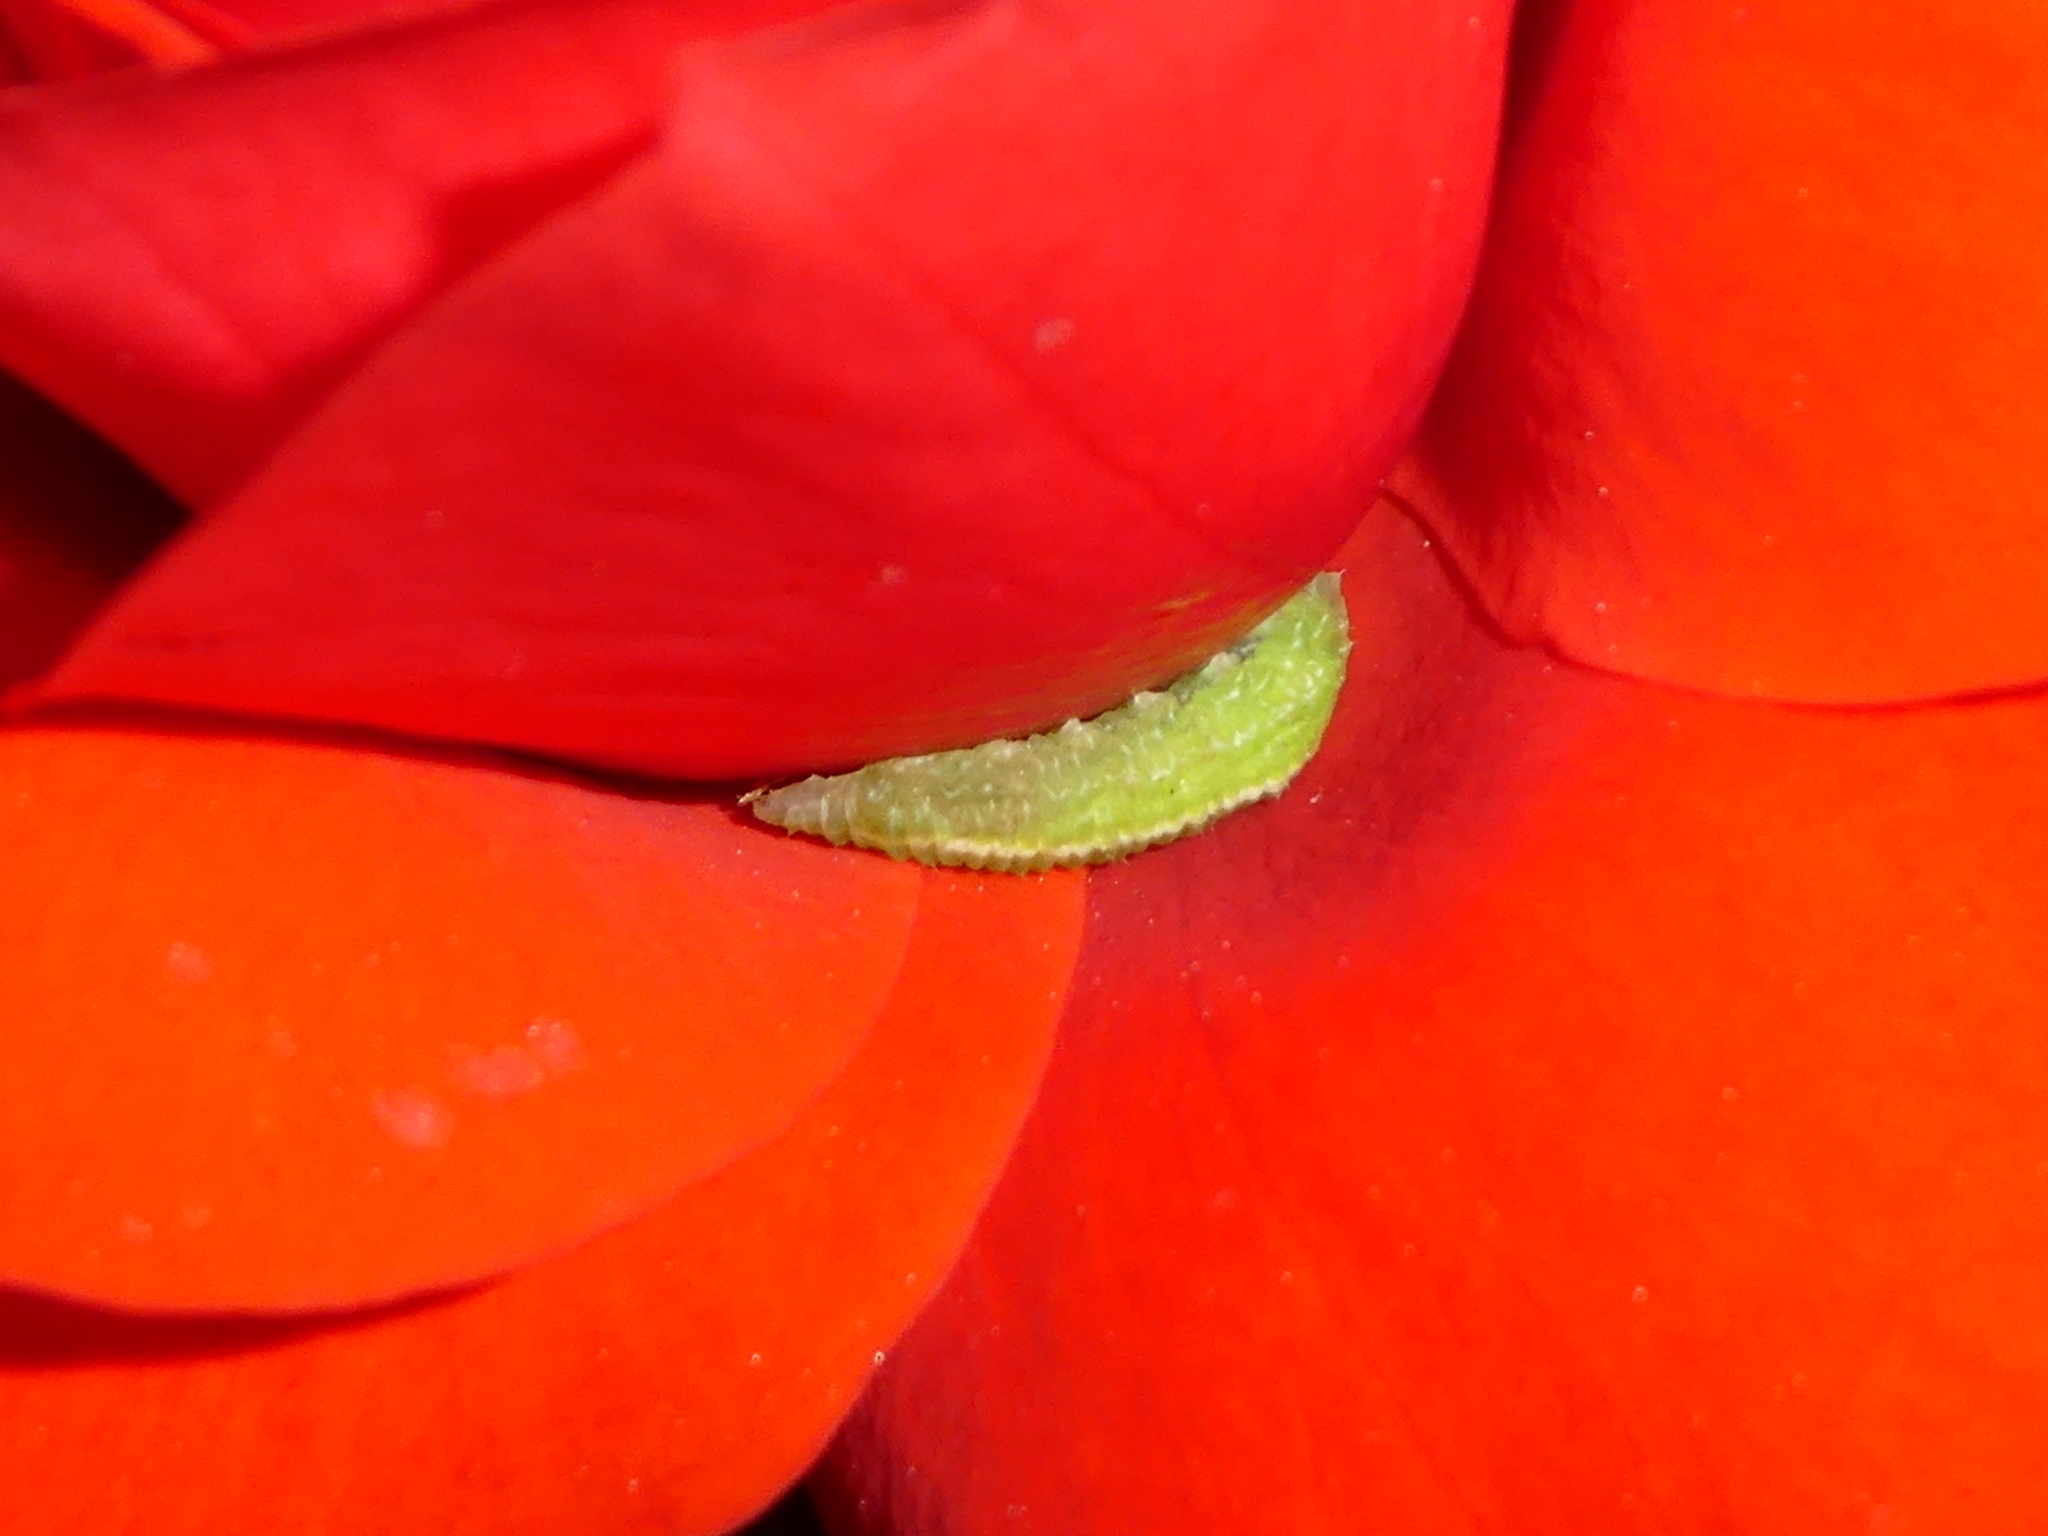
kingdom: Animalia
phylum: Arthropoda
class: Insecta
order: Diptera
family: Syrphidae
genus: Scaeva
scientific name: Scaeva affinis
